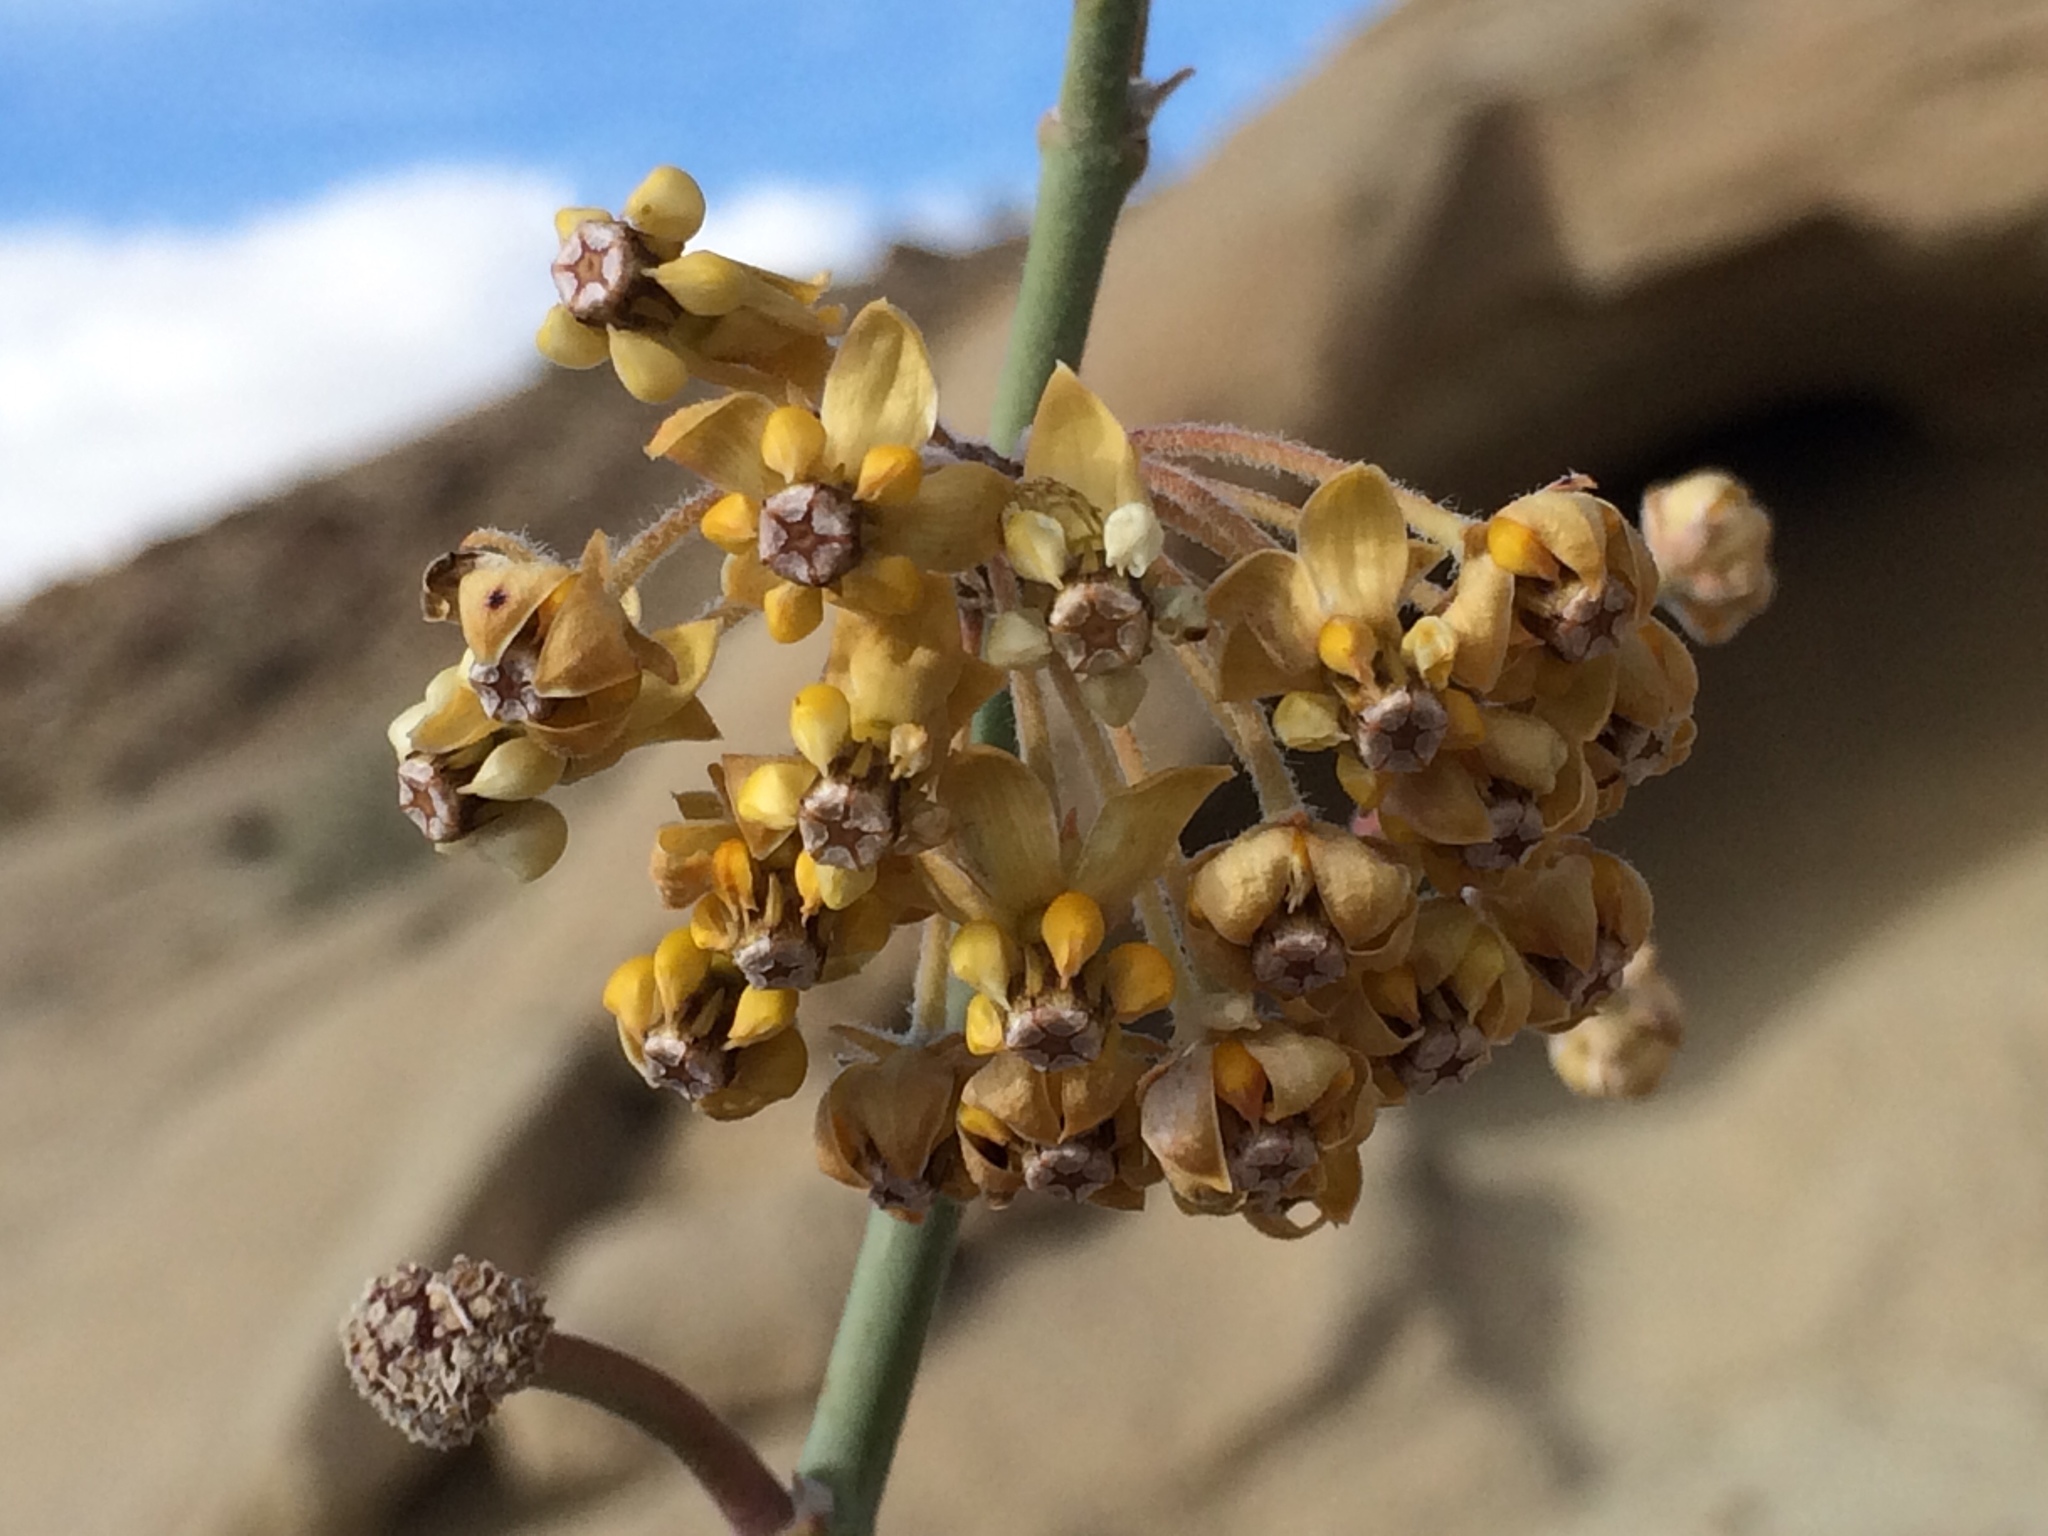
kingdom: Plantae
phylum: Tracheophyta
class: Magnoliopsida
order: Gentianales
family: Apocynaceae
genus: Asclepias
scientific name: Asclepias albicans
